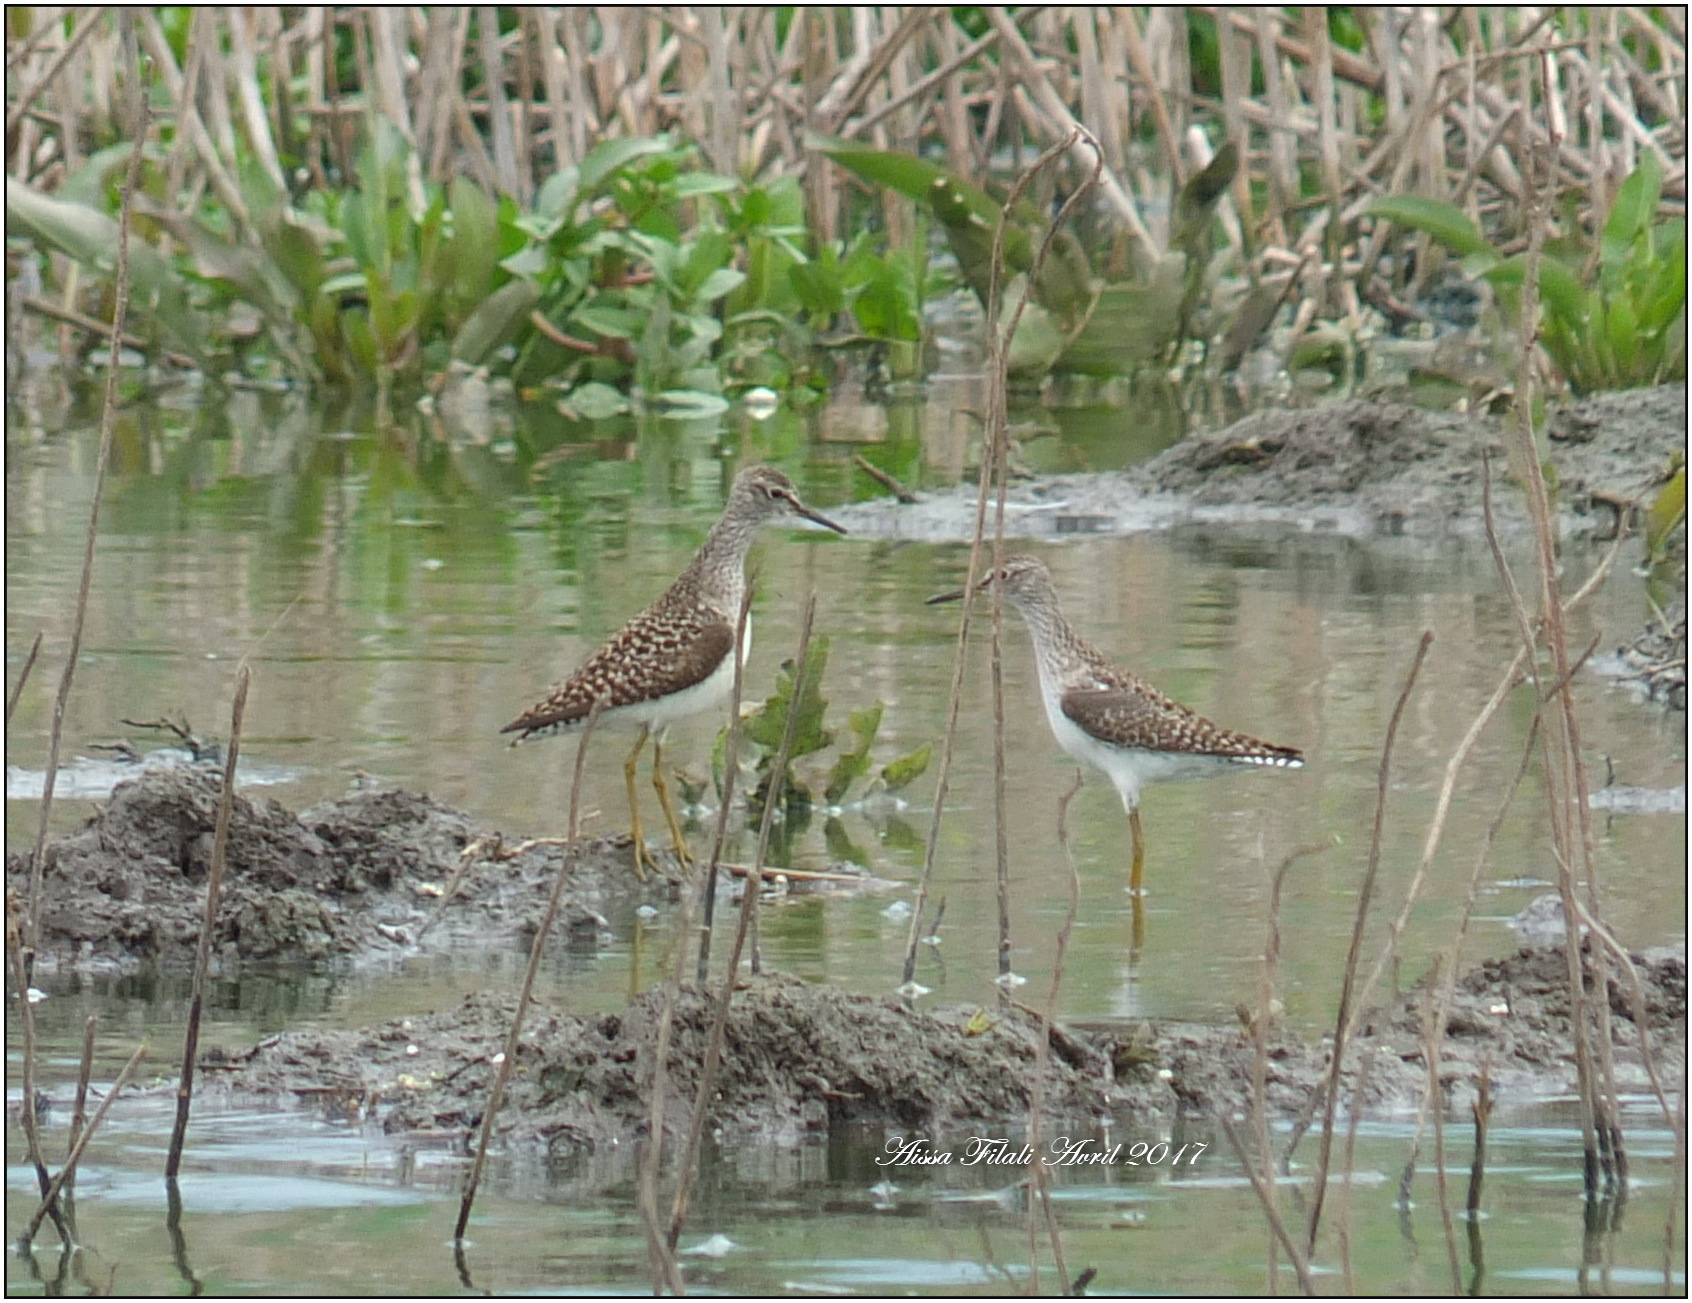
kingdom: Animalia
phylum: Chordata
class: Aves
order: Charadriiformes
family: Scolopacidae
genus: Tringa
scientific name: Tringa glareola
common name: Wood sandpiper
